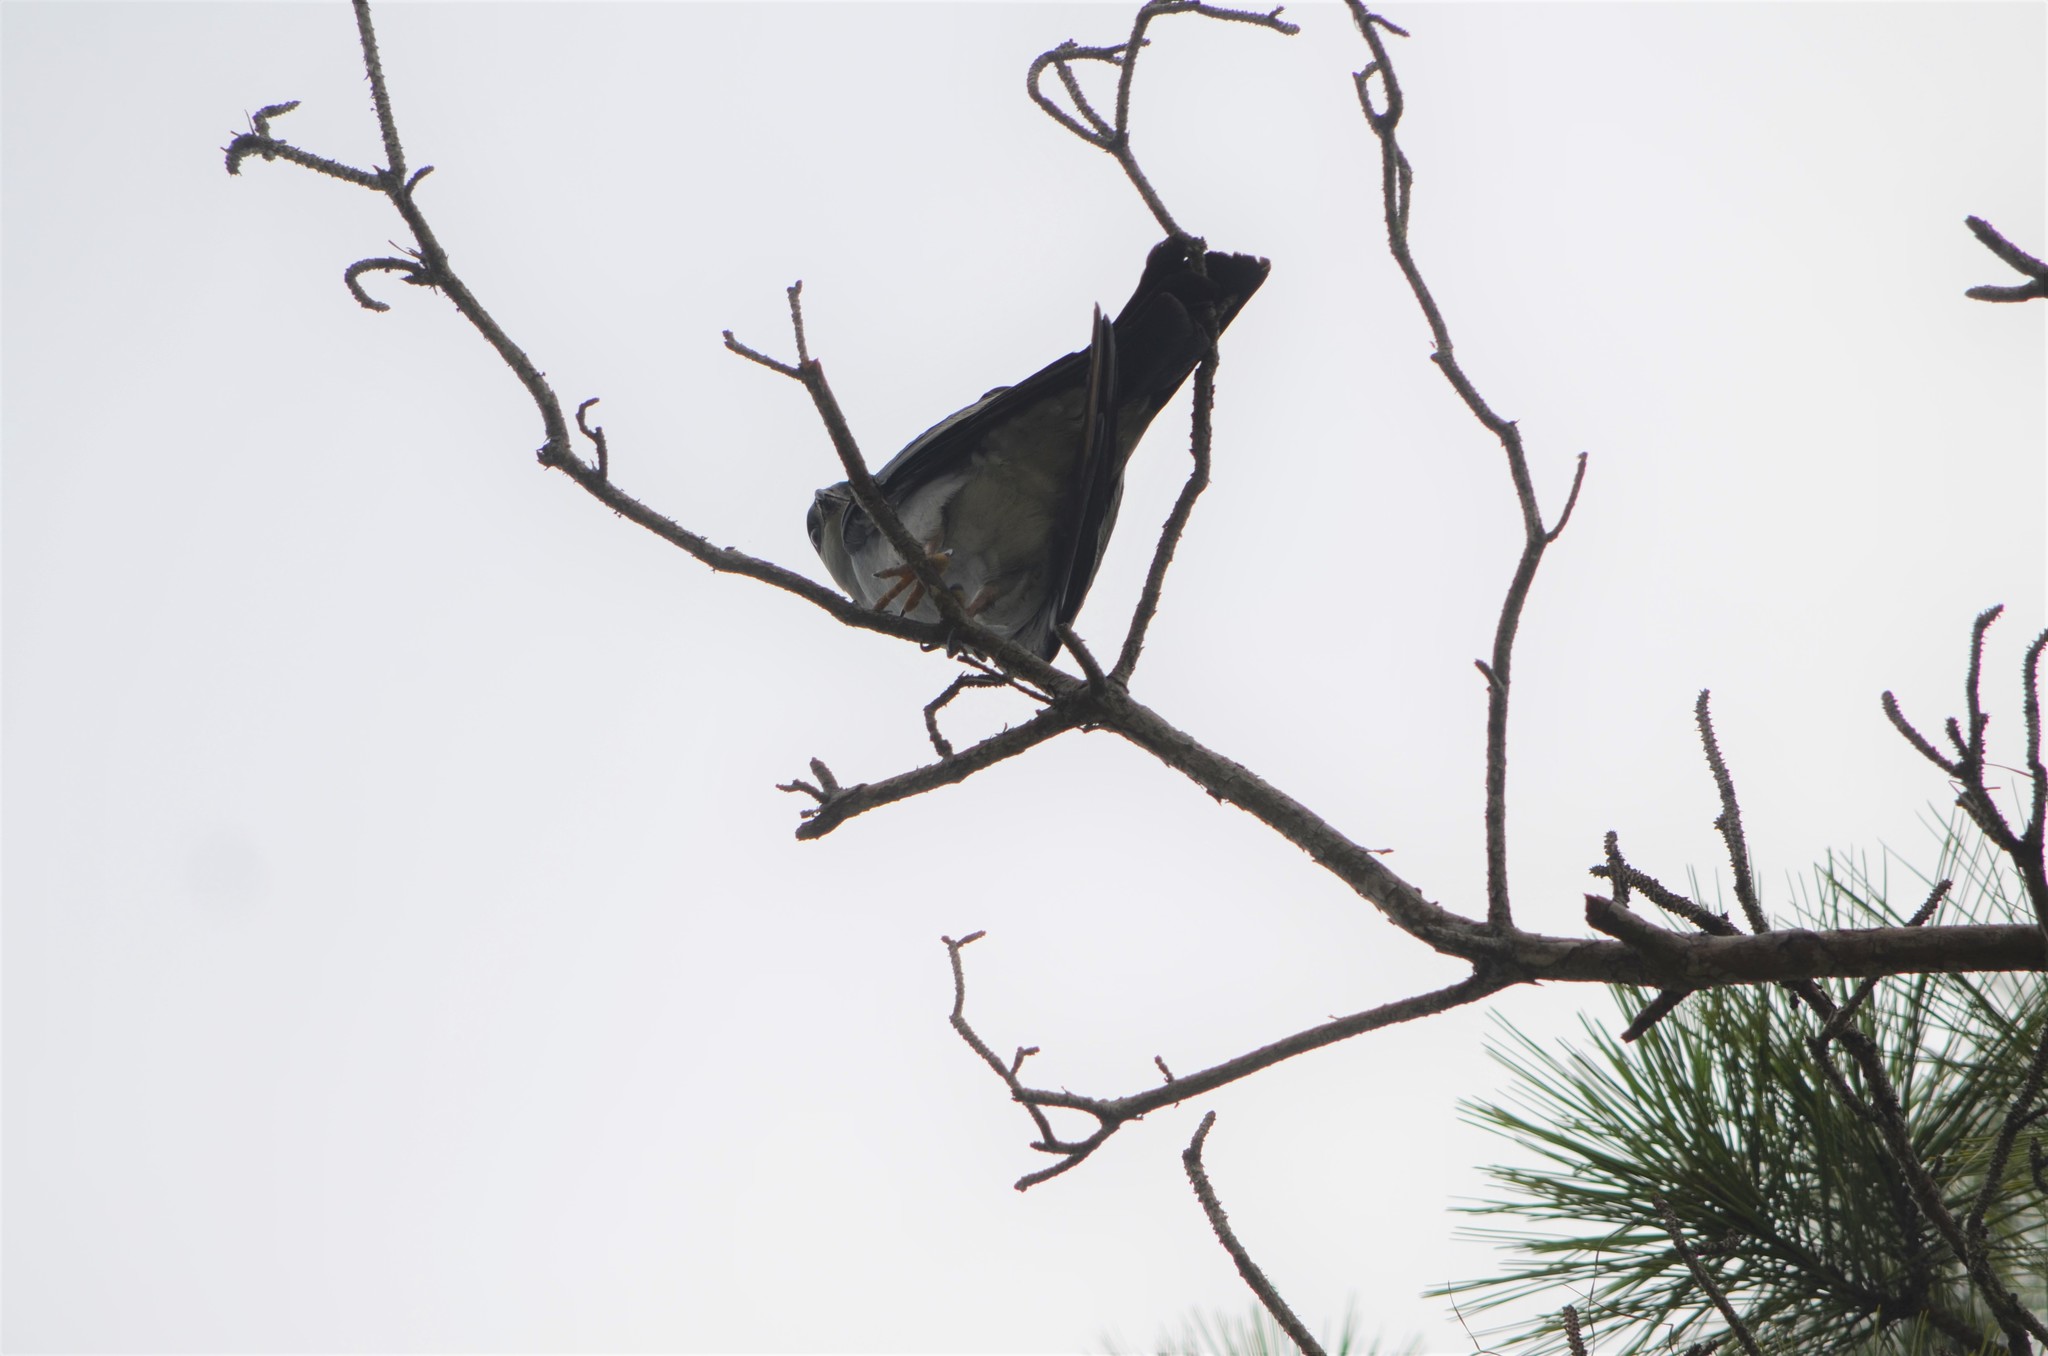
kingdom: Animalia
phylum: Chordata
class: Aves
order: Accipitriformes
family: Accipitridae
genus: Ictinia
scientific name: Ictinia mississippiensis
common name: Mississippi kite
